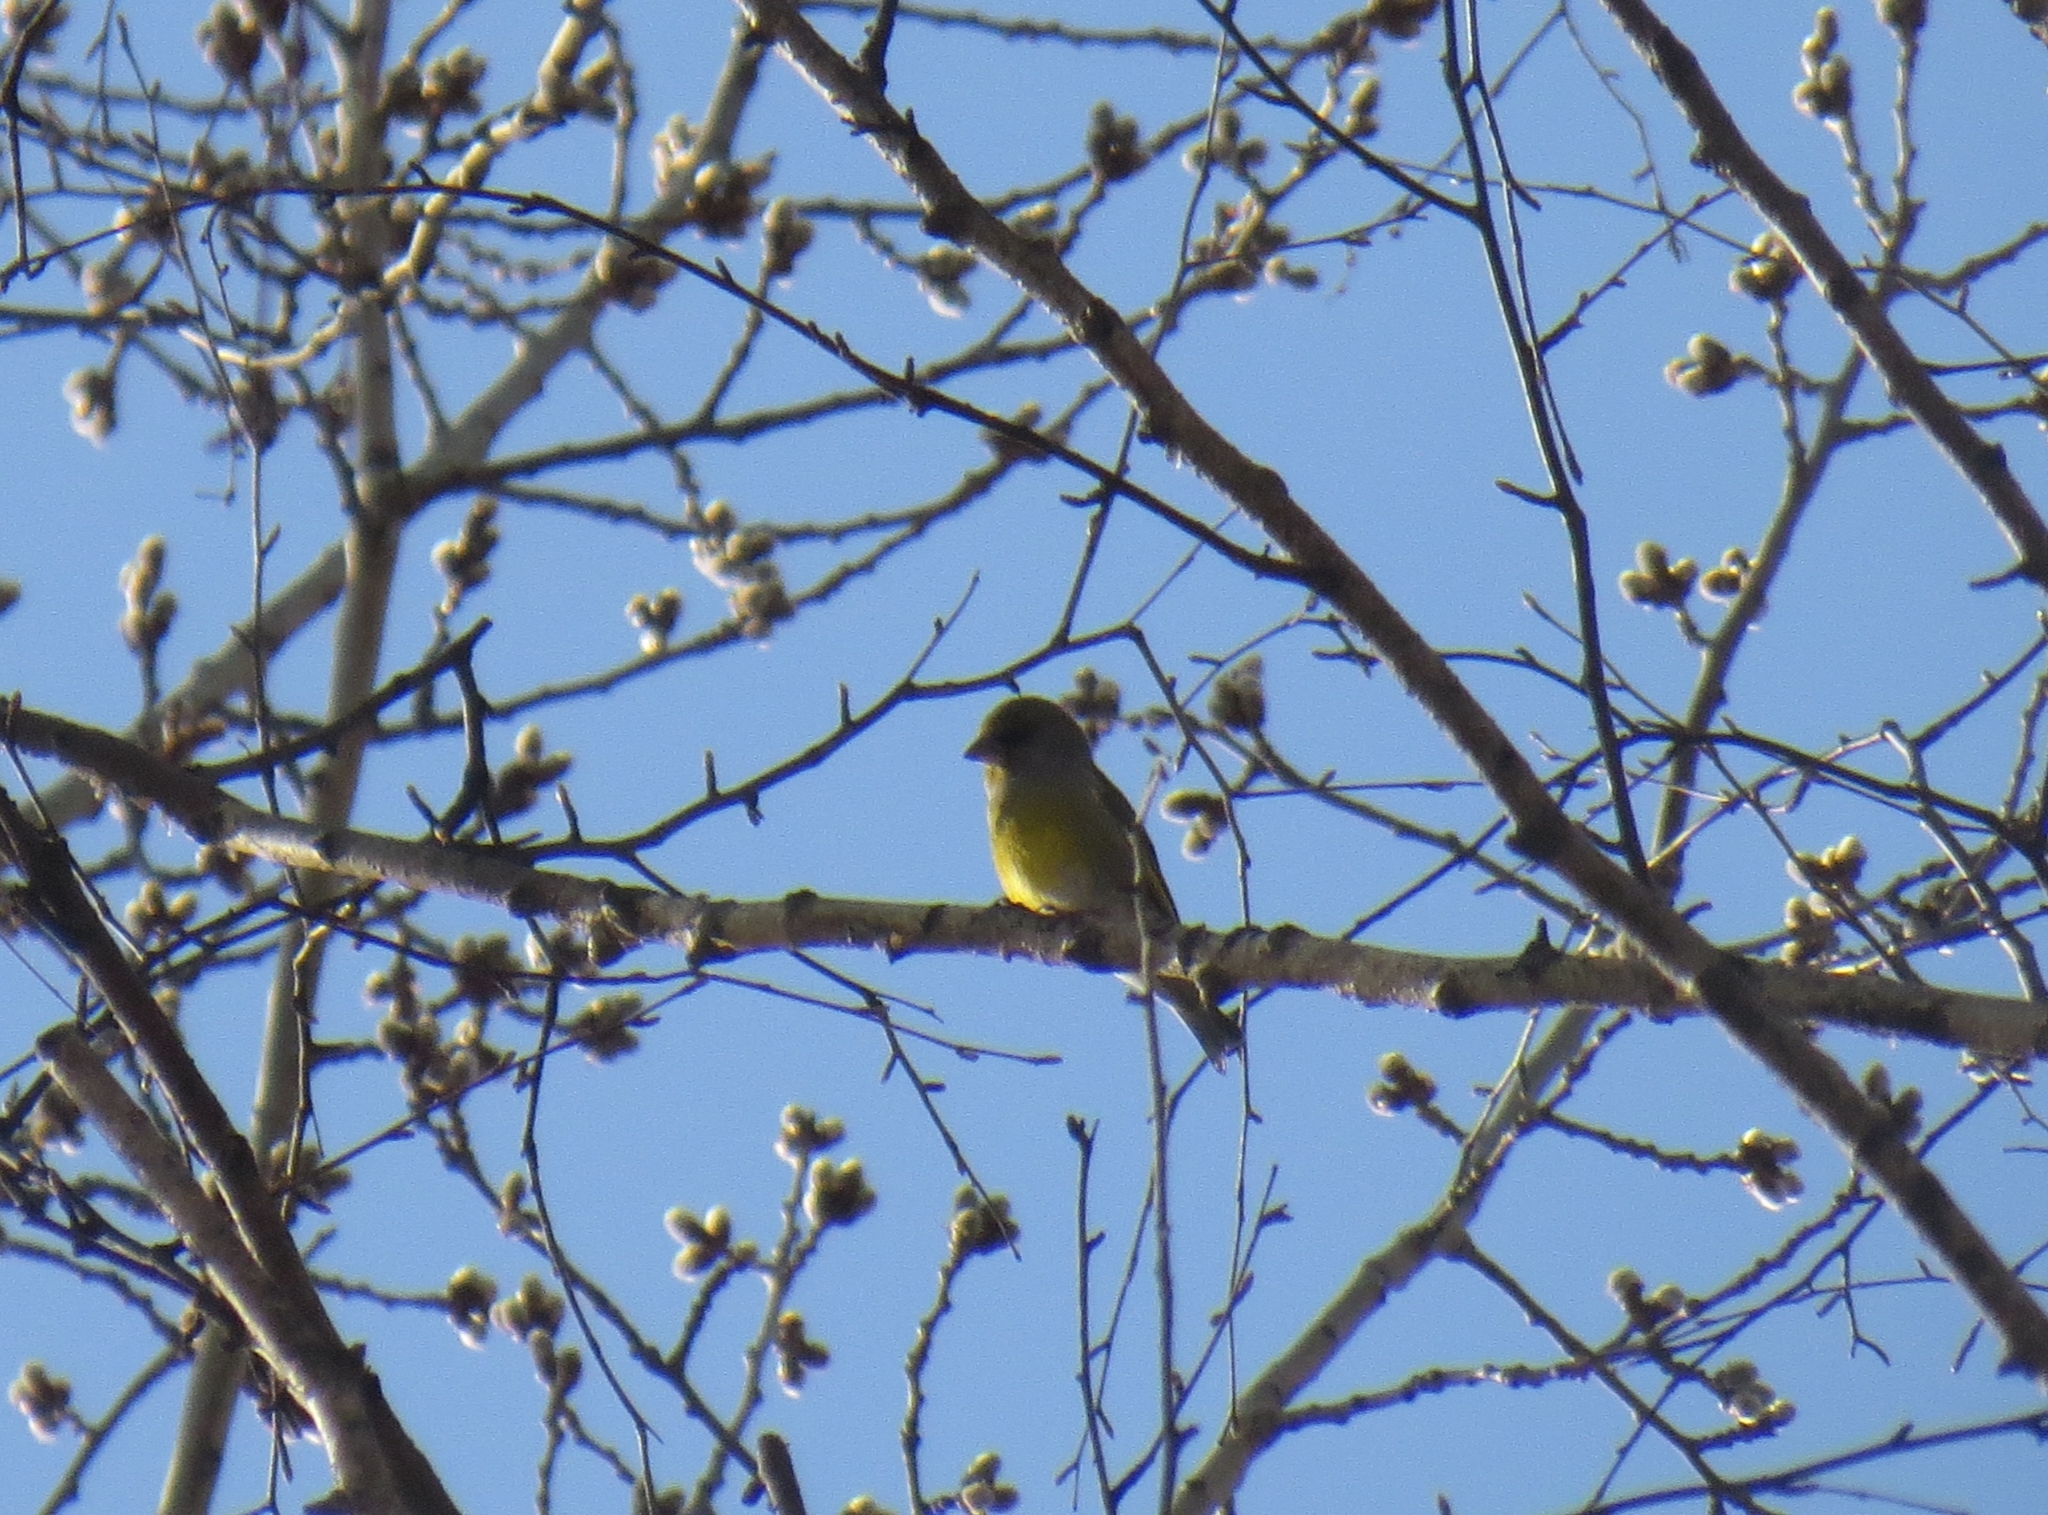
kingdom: Plantae
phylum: Tracheophyta
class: Liliopsida
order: Poales
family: Poaceae
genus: Chloris
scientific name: Chloris chloris
